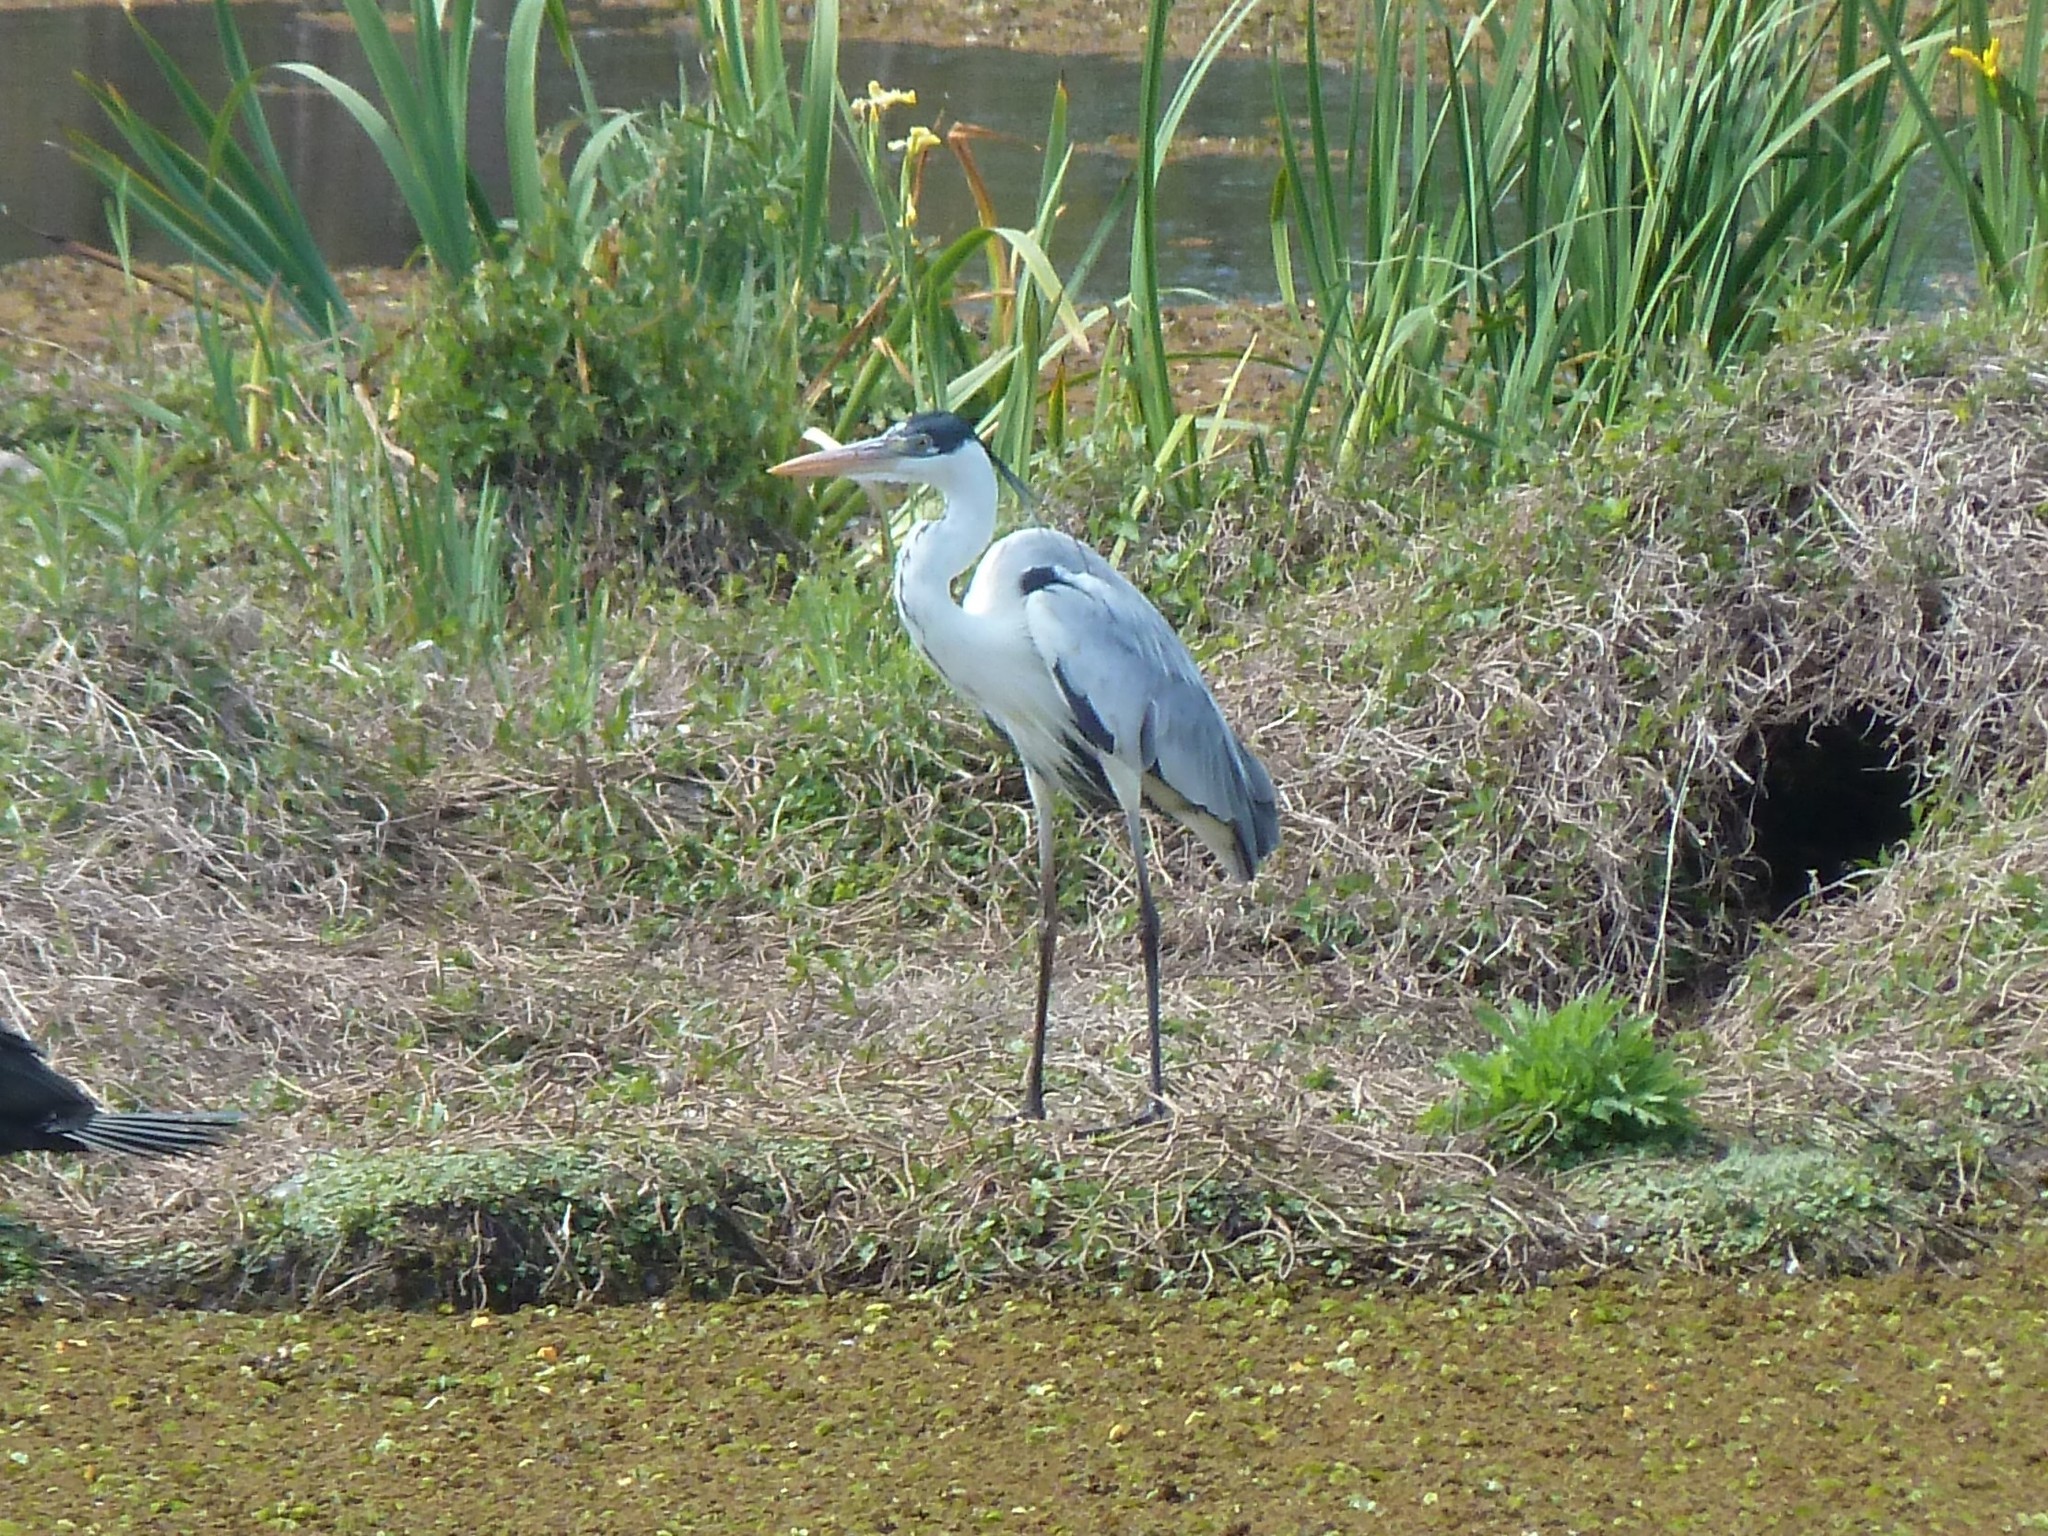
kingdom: Animalia
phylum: Chordata
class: Aves
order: Pelecaniformes
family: Ardeidae
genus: Ardea
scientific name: Ardea cocoi
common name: Cocoi heron
